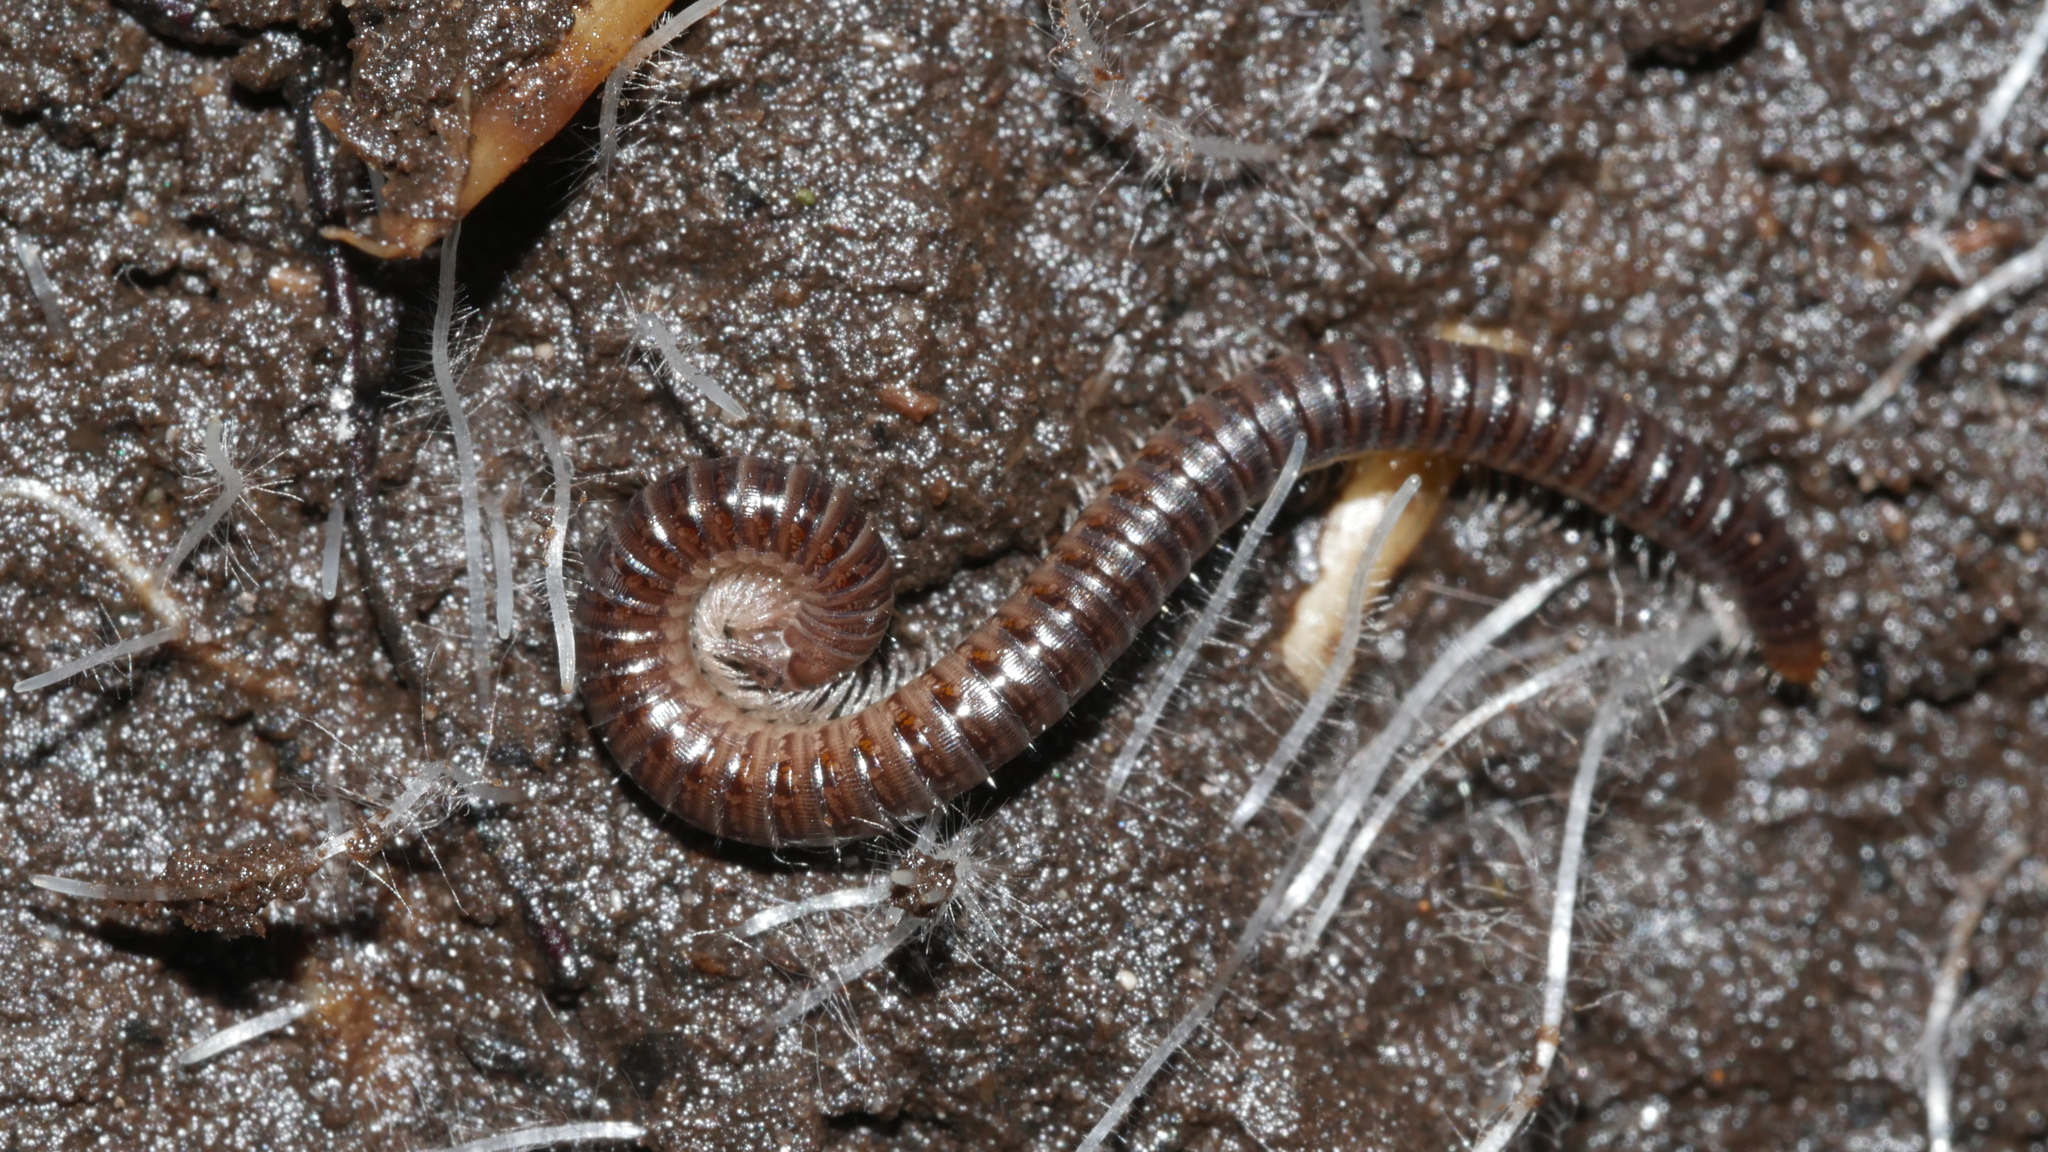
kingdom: Animalia
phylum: Arthropoda
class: Diplopoda
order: Julida
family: Julidae
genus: Ophyiulus
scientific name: Ophyiulus pilosus
